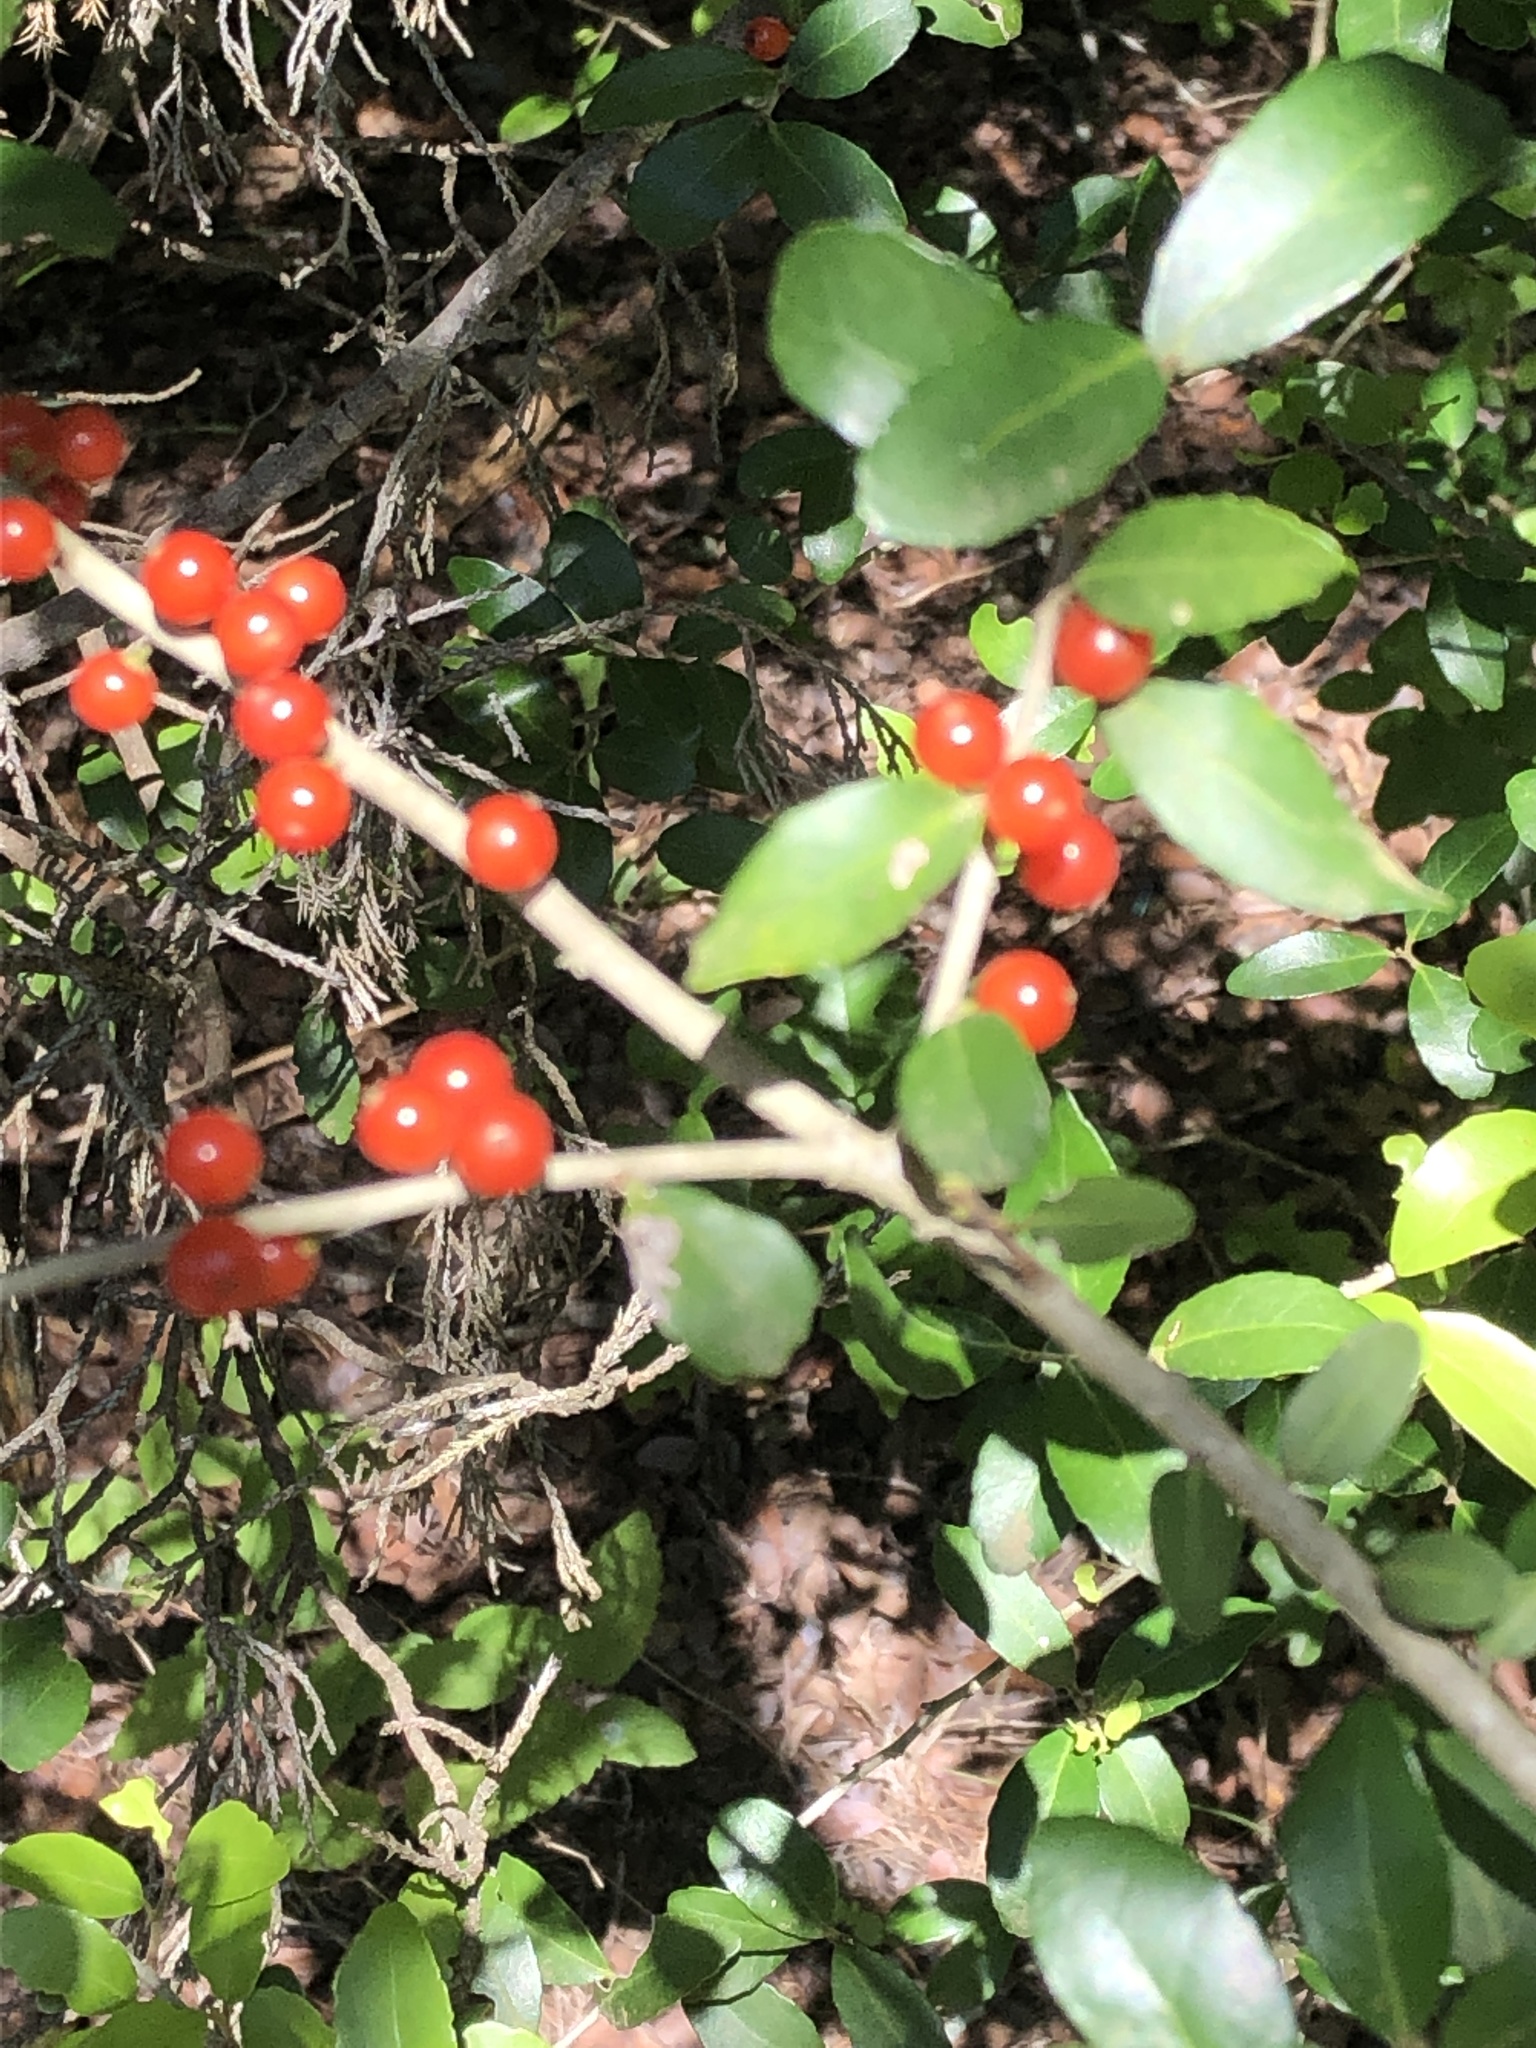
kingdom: Plantae
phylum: Tracheophyta
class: Magnoliopsida
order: Aquifoliales
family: Aquifoliaceae
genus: Ilex
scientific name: Ilex vomitoria
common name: Yaupon holly
